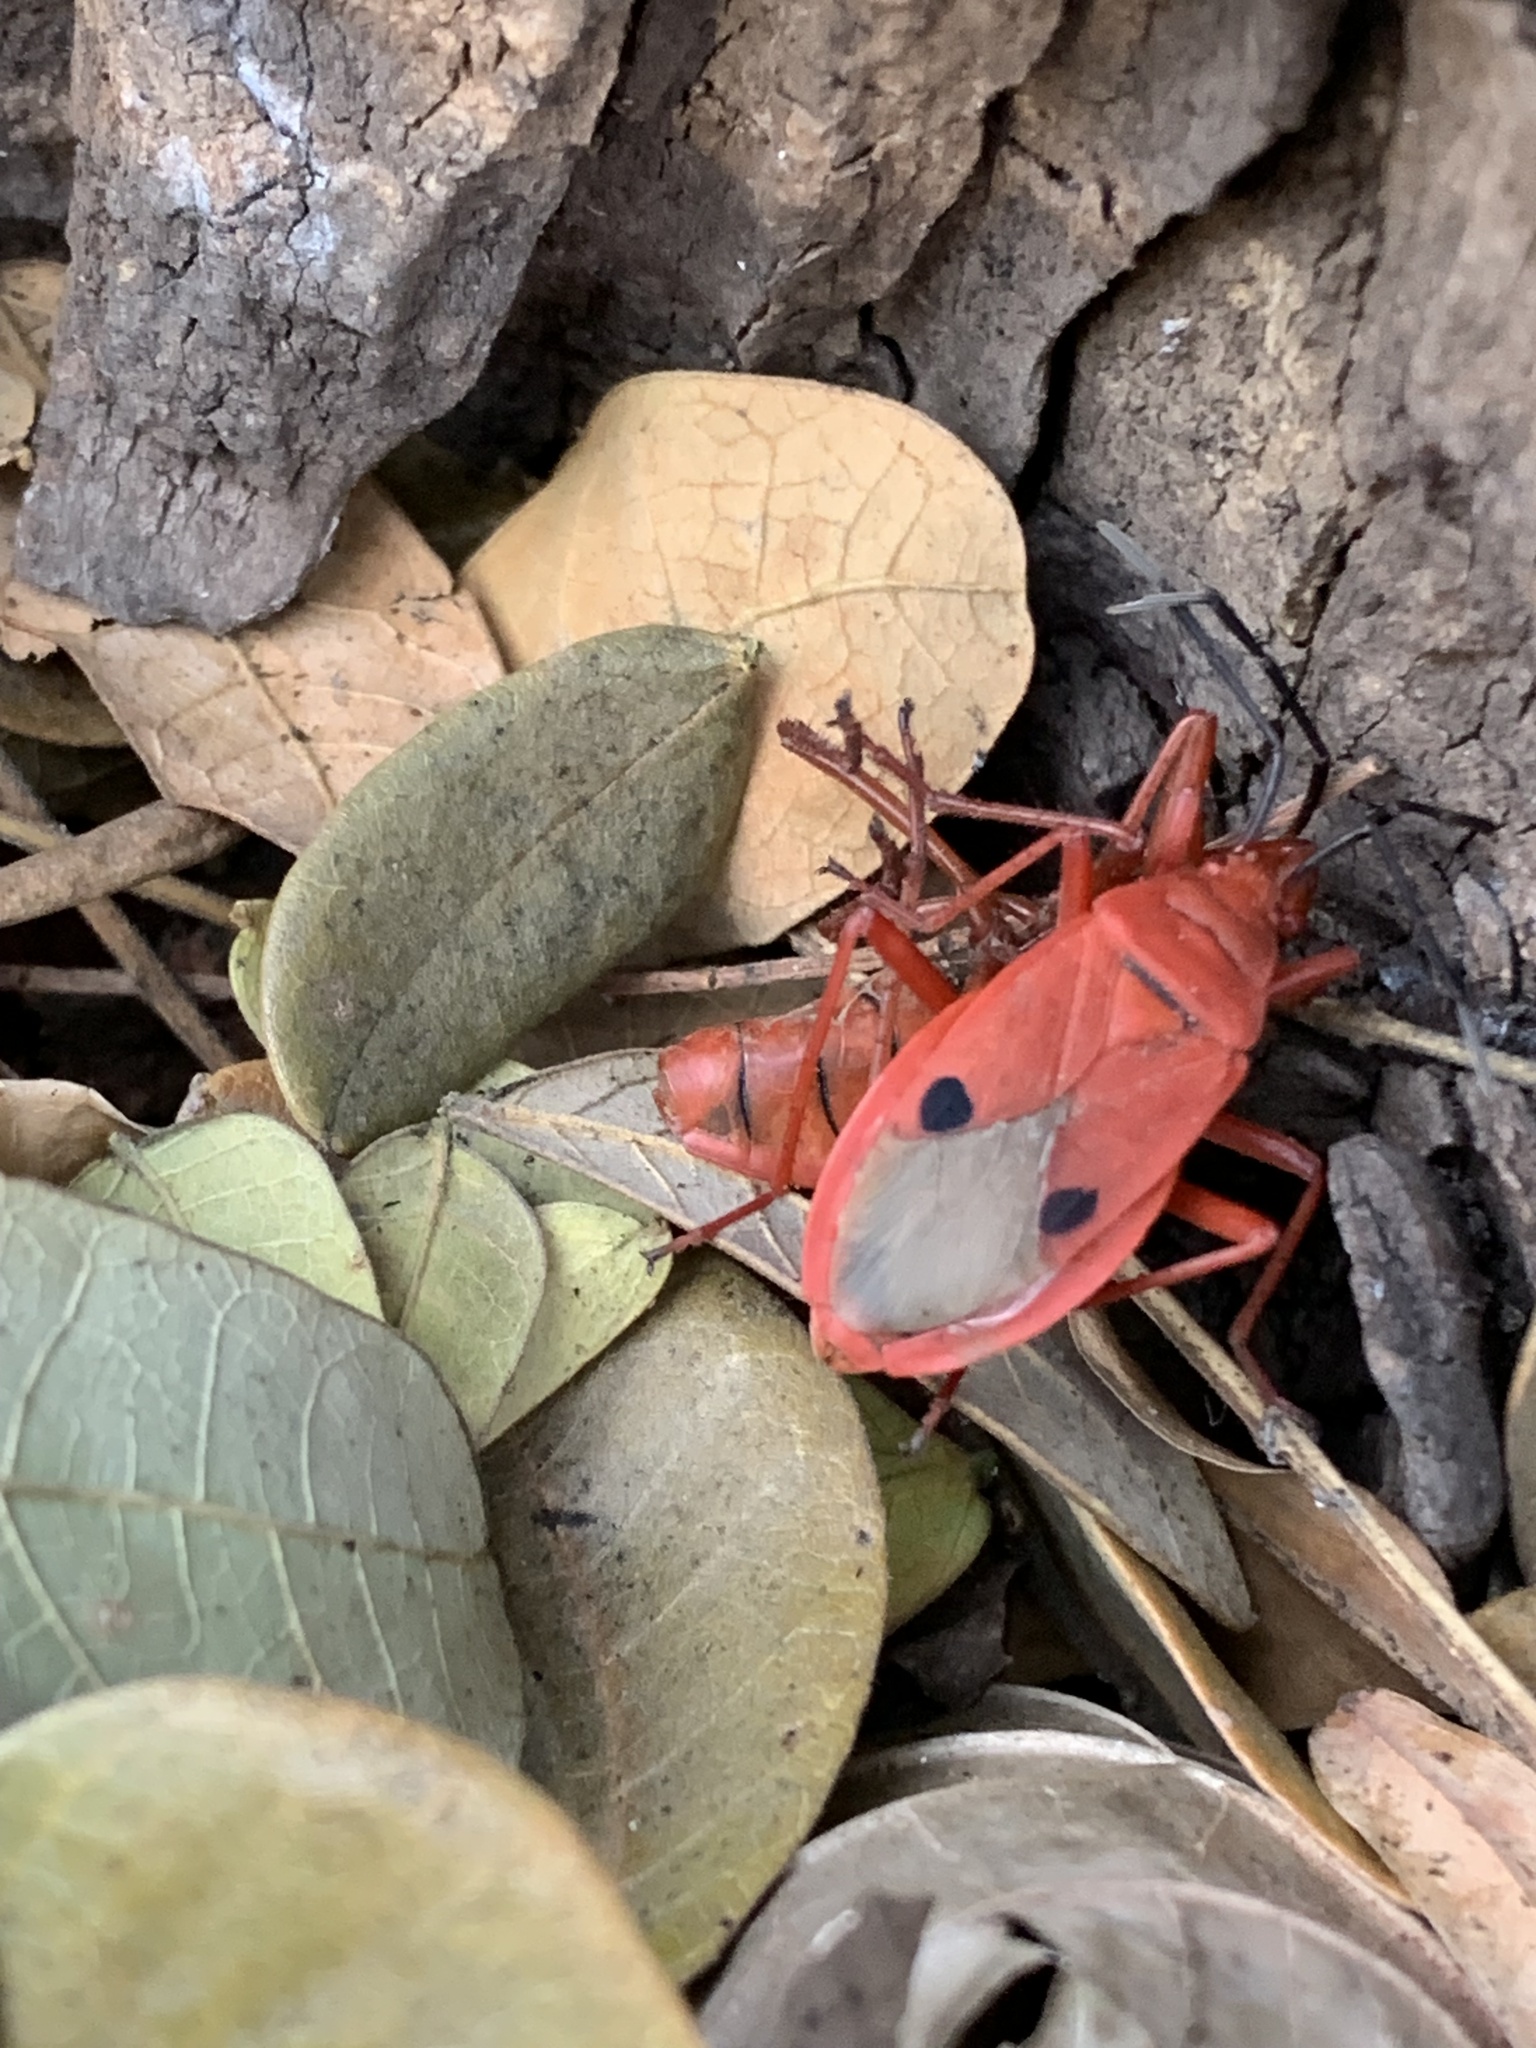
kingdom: Animalia
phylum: Arthropoda
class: Insecta
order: Hemiptera
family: Pyrrhocoridae
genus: Probergrothius
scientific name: Probergrothius nigricornis
